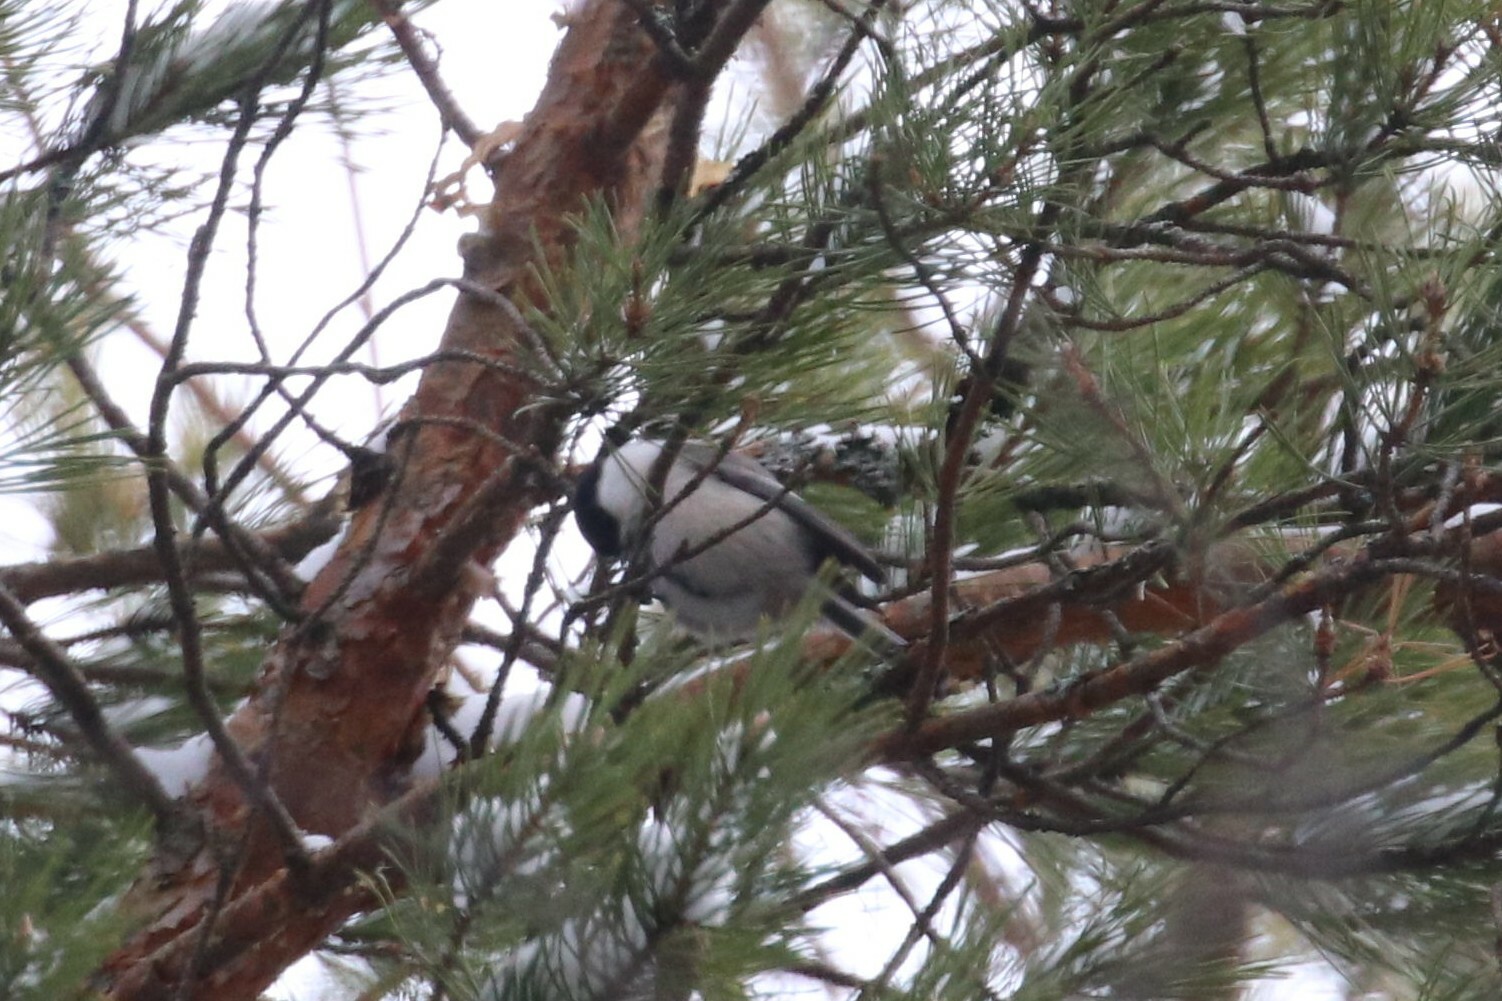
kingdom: Animalia
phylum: Chordata
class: Aves
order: Passeriformes
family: Paridae
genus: Poecile
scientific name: Poecile montanus
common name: Willow tit
